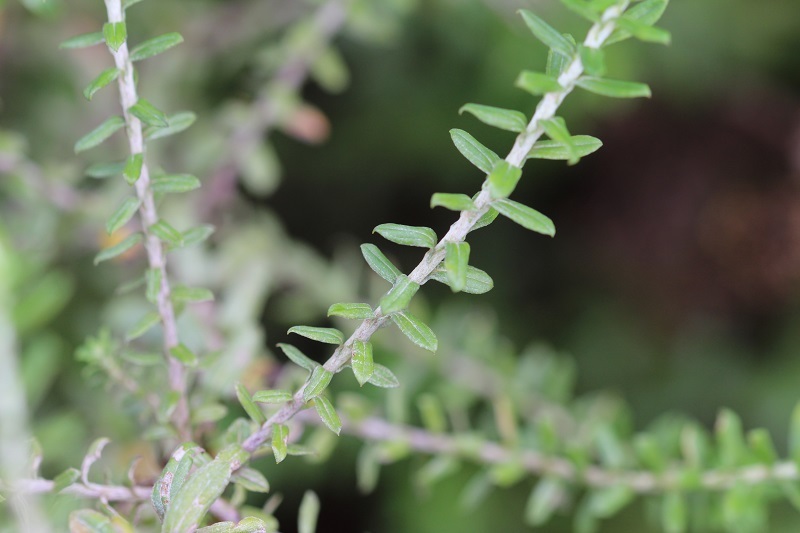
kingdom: Plantae
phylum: Tracheophyta
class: Magnoliopsida
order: Asterales
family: Asteraceae
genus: Helichrysum
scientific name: Helichrysum cymosum
